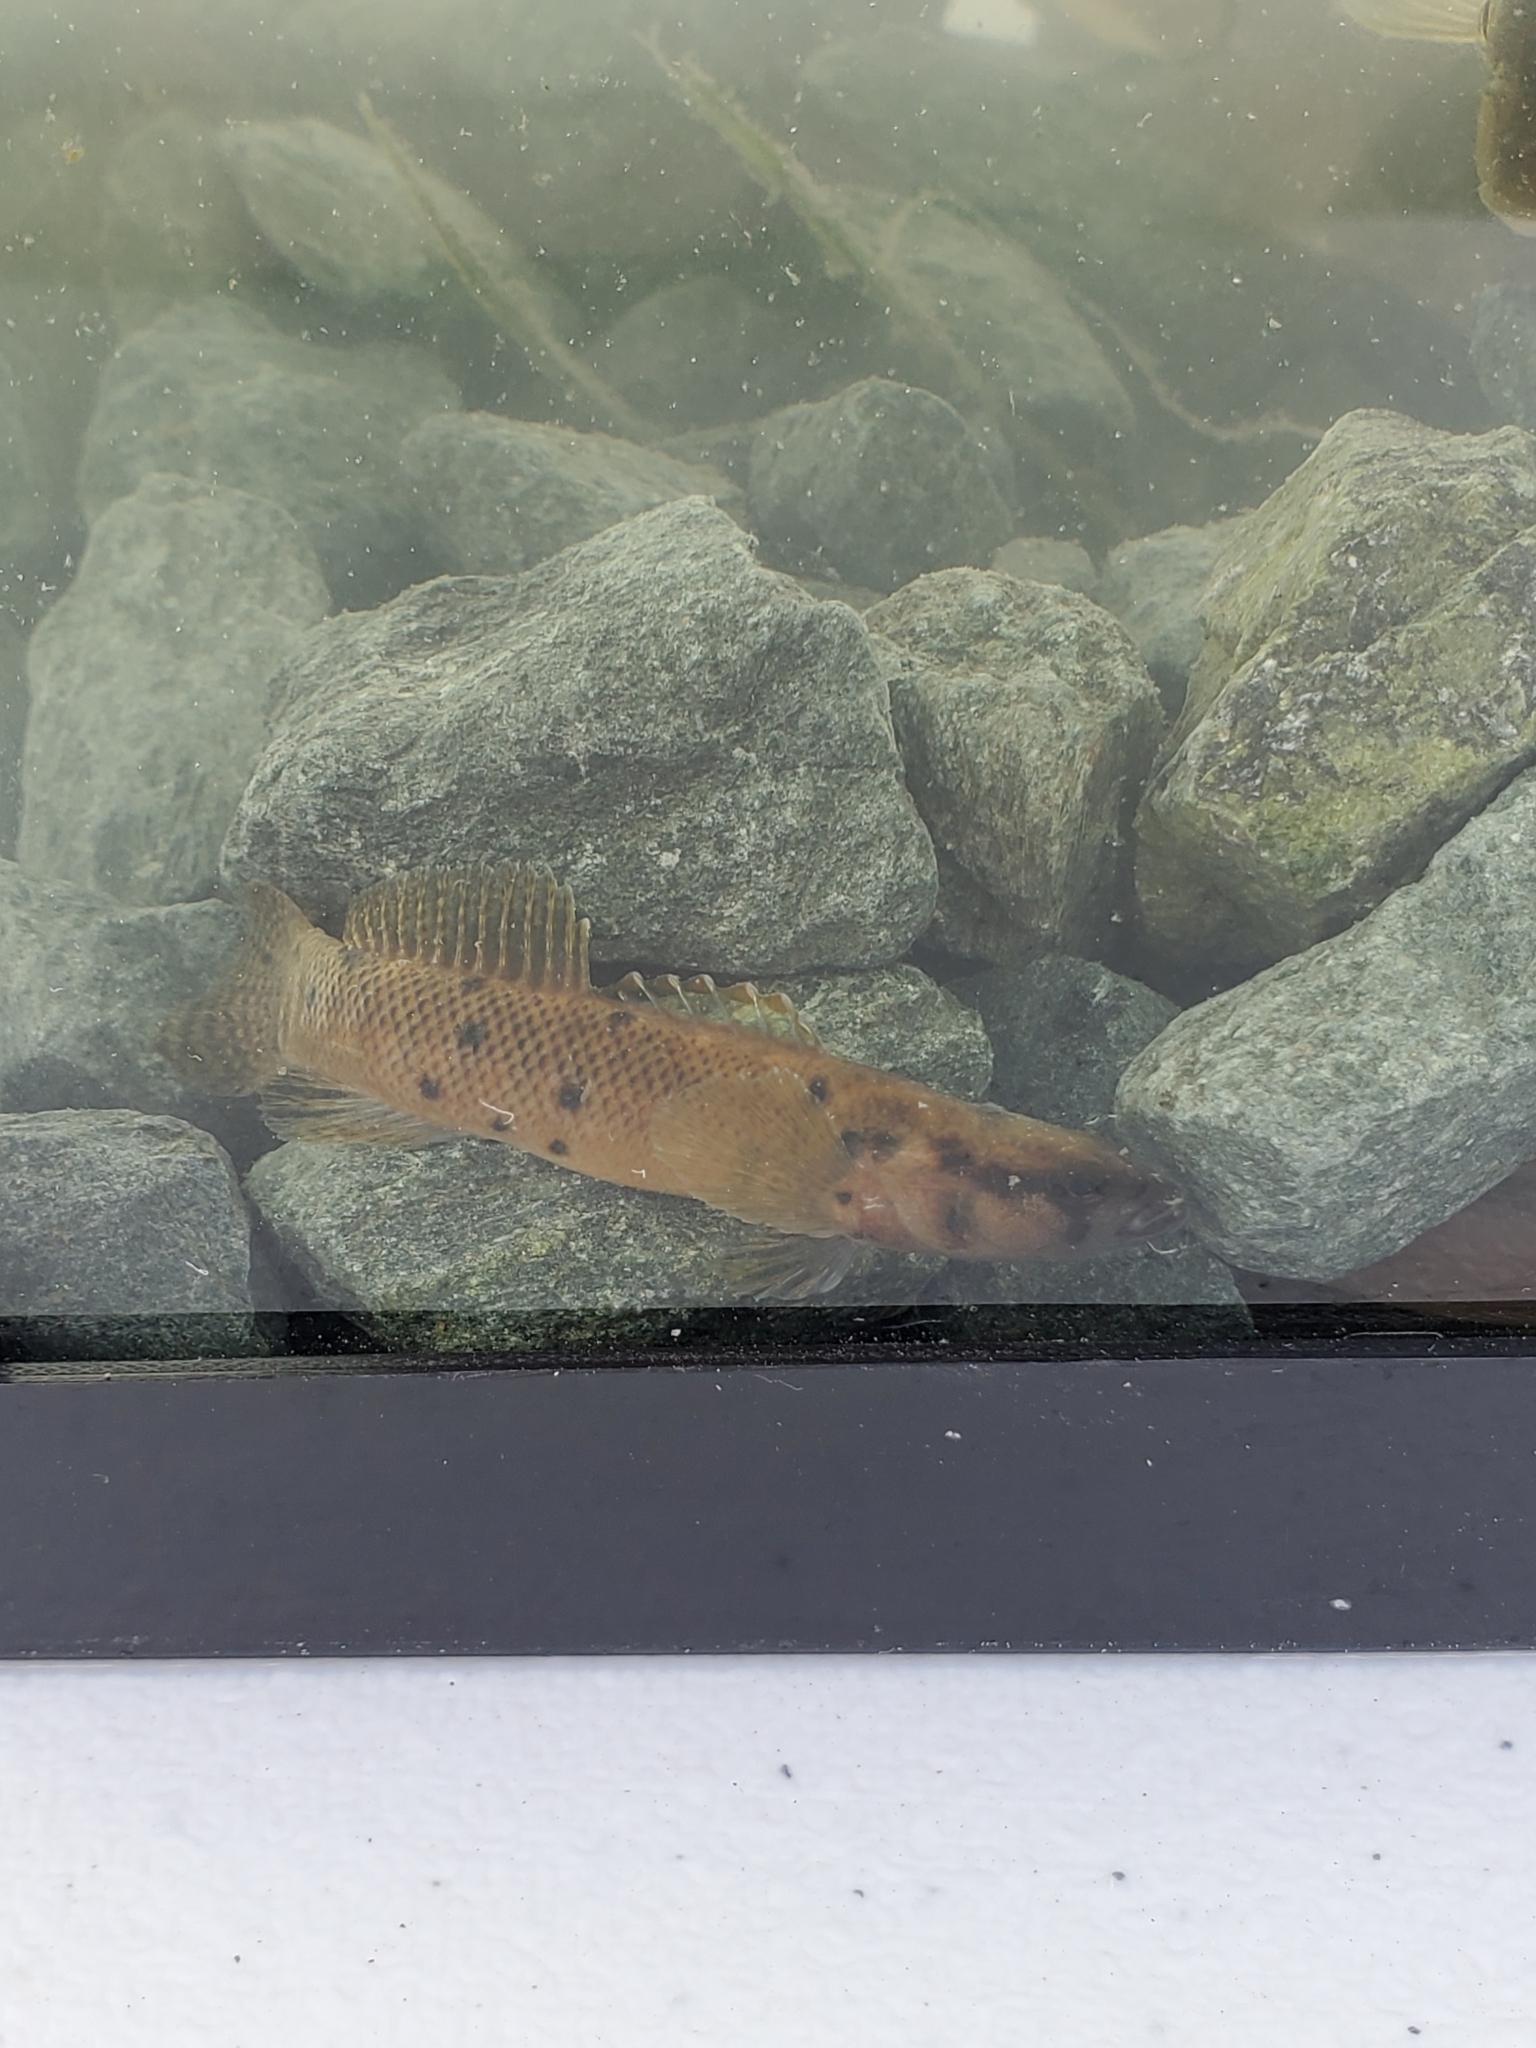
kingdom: Animalia
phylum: Chordata
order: Perciformes
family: Percidae
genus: Etheostoma
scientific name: Etheostoma flabellare
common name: Fantail darter
